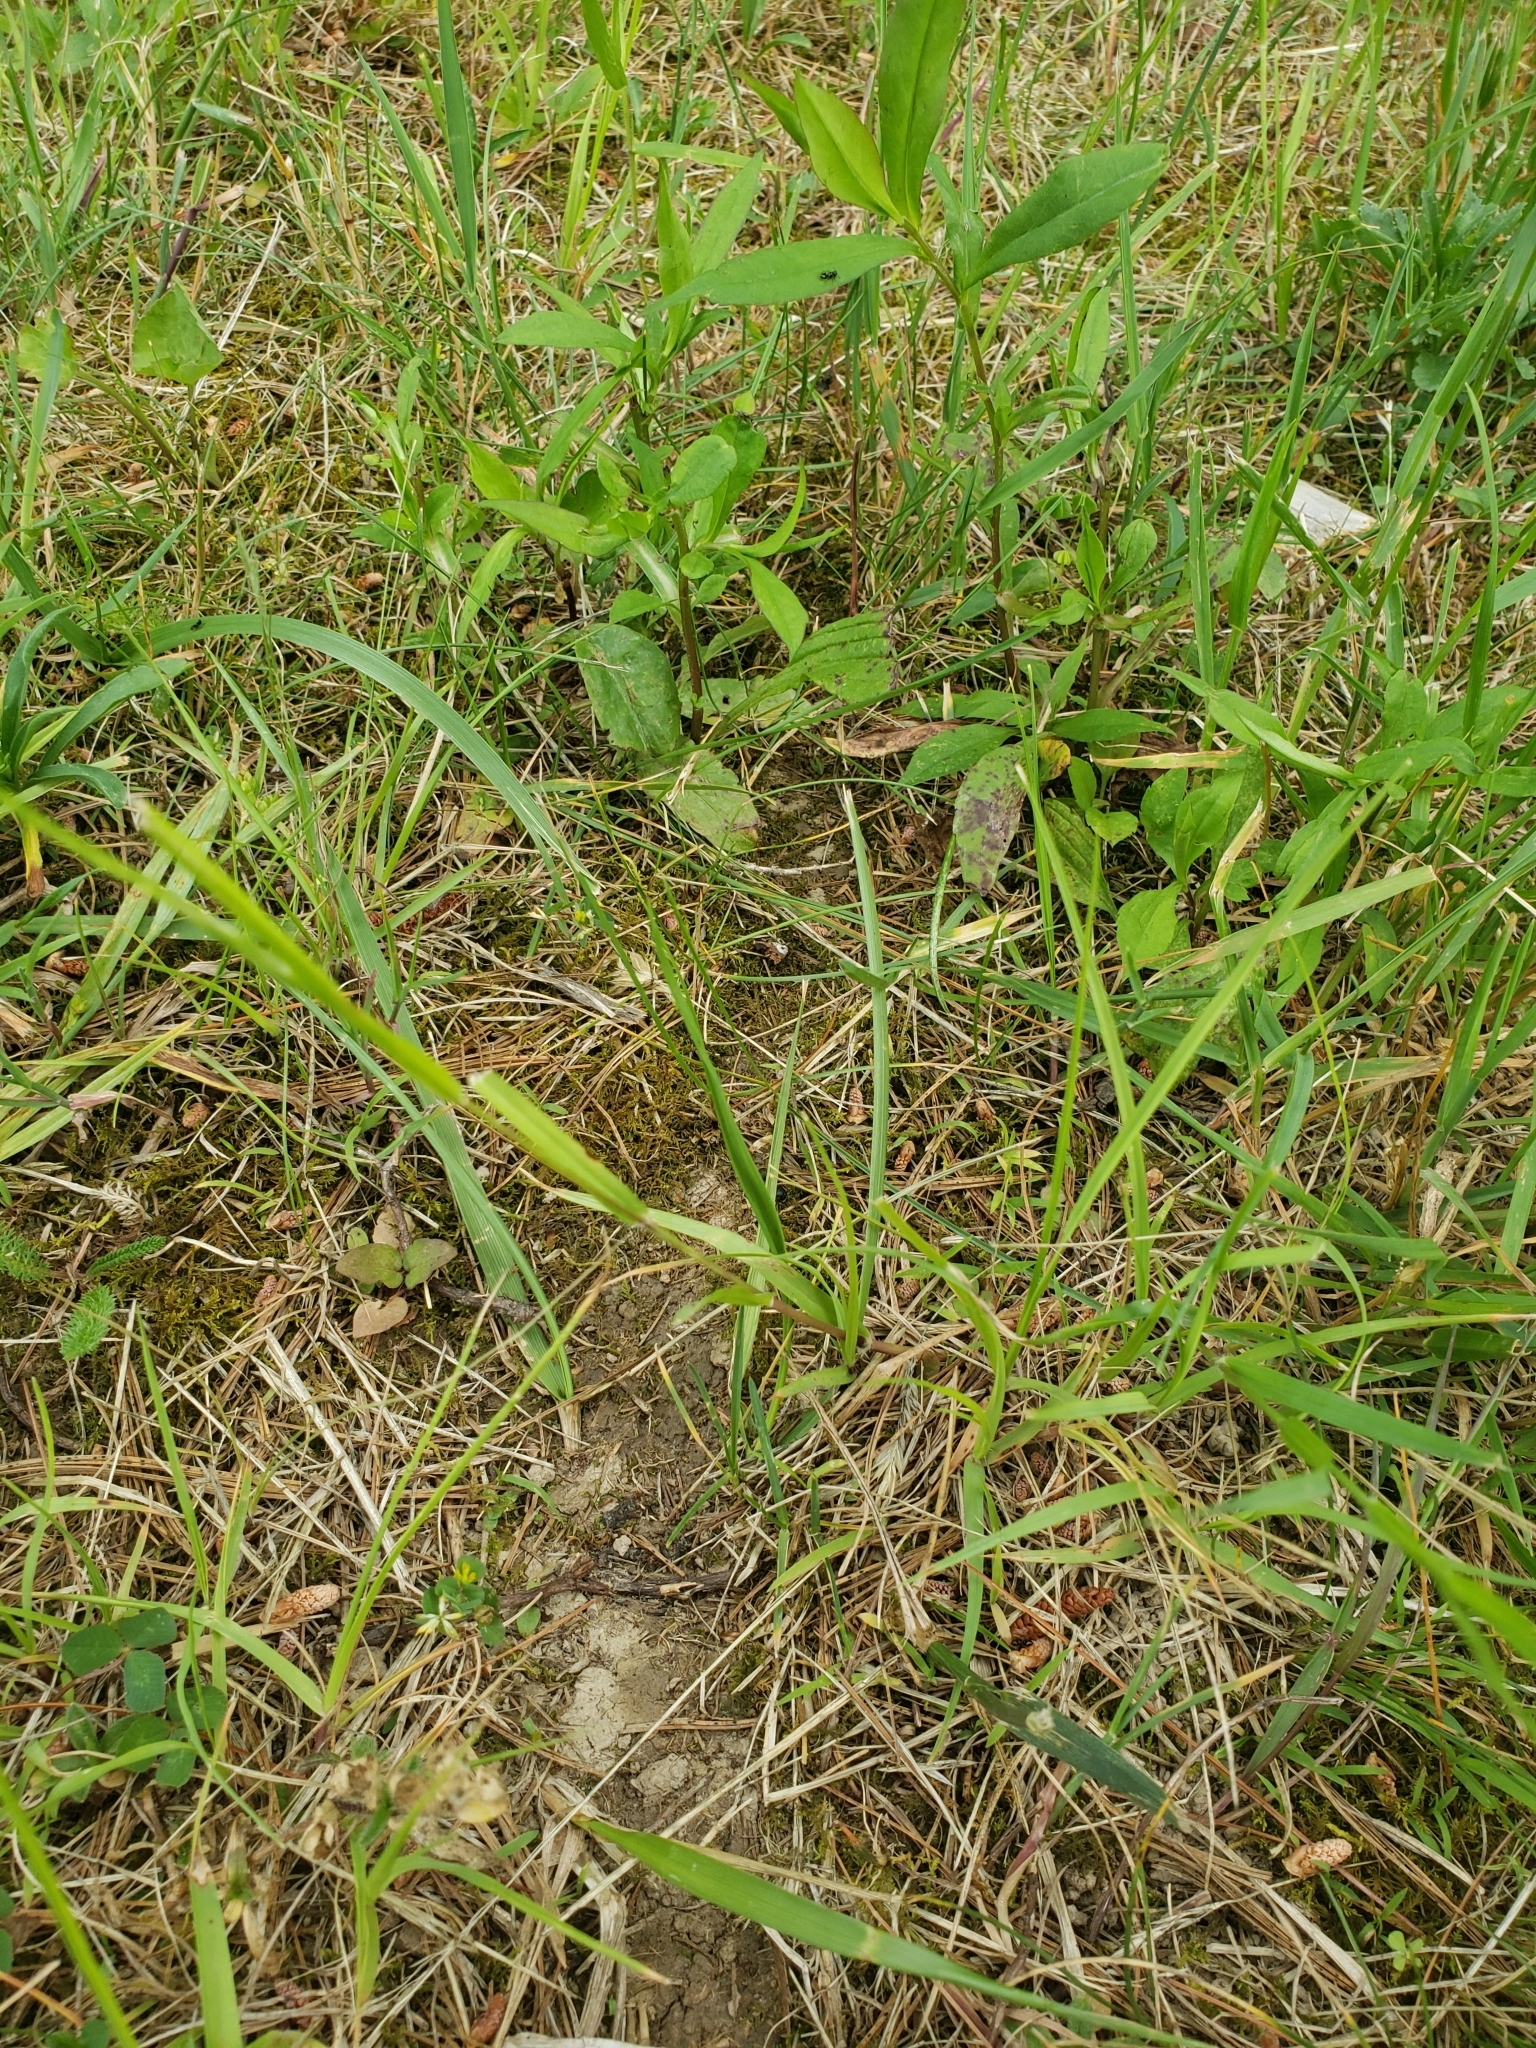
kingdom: Animalia
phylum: Arthropoda
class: Insecta
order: Hymenoptera
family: Formicidae
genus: Camponotus
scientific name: Camponotus pennsylvanicus
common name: Black carpenter ant
